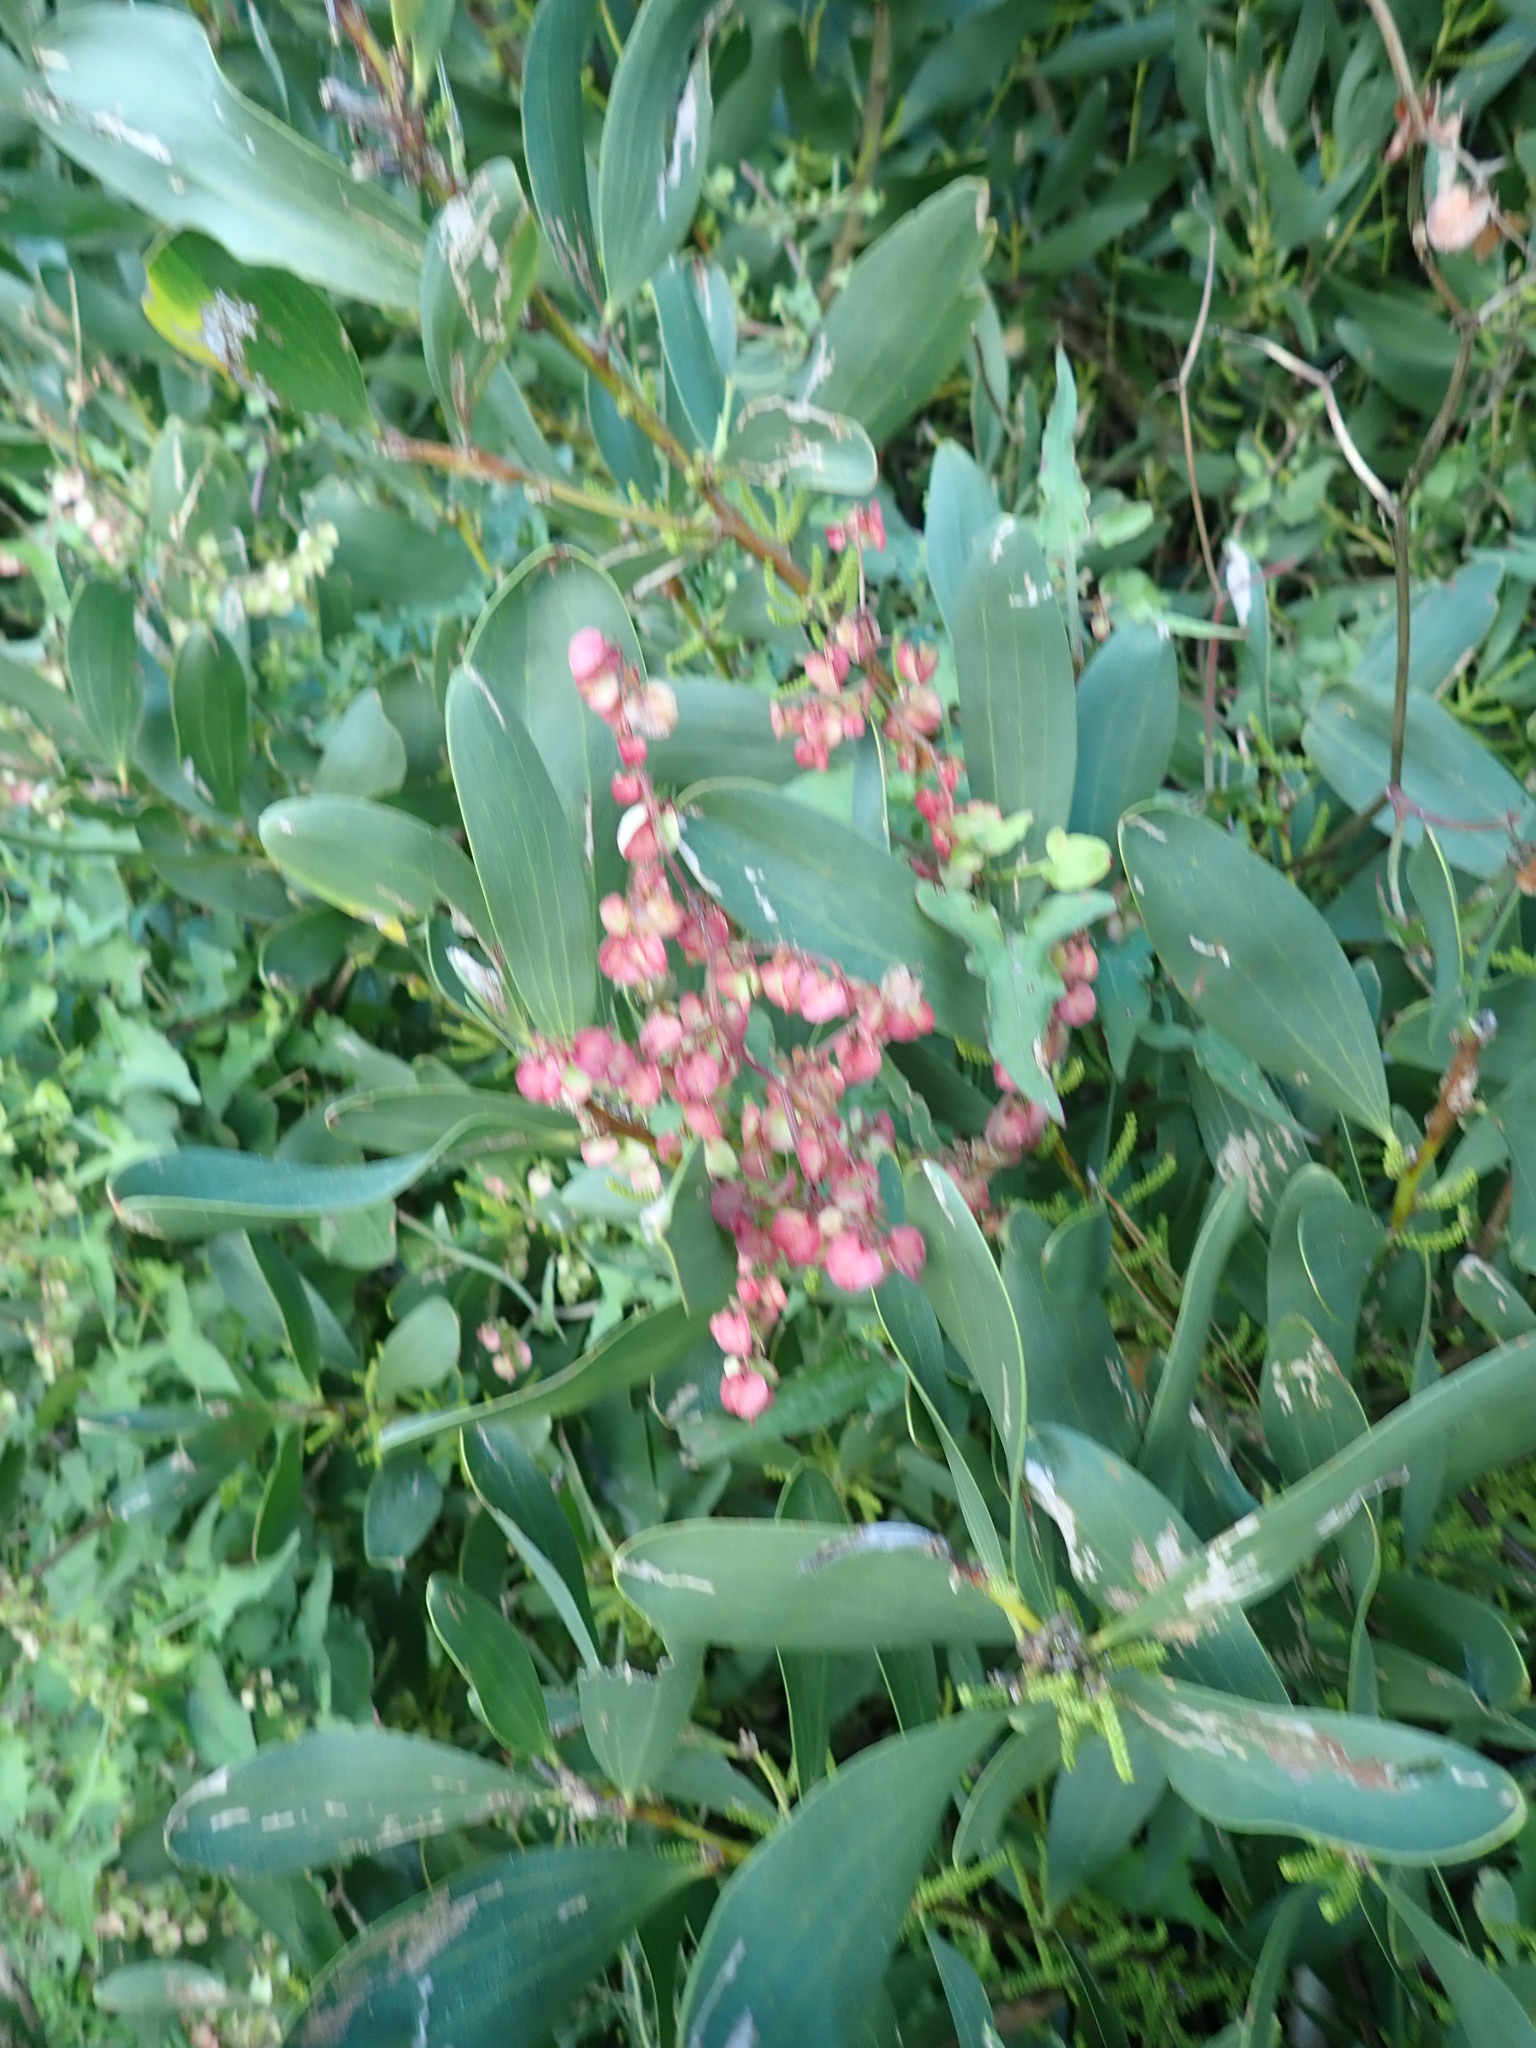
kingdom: Plantae
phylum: Tracheophyta
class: Magnoliopsida
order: Caryophyllales
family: Polygonaceae
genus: Rumex
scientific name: Rumex sagittatus
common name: Climbing dock
